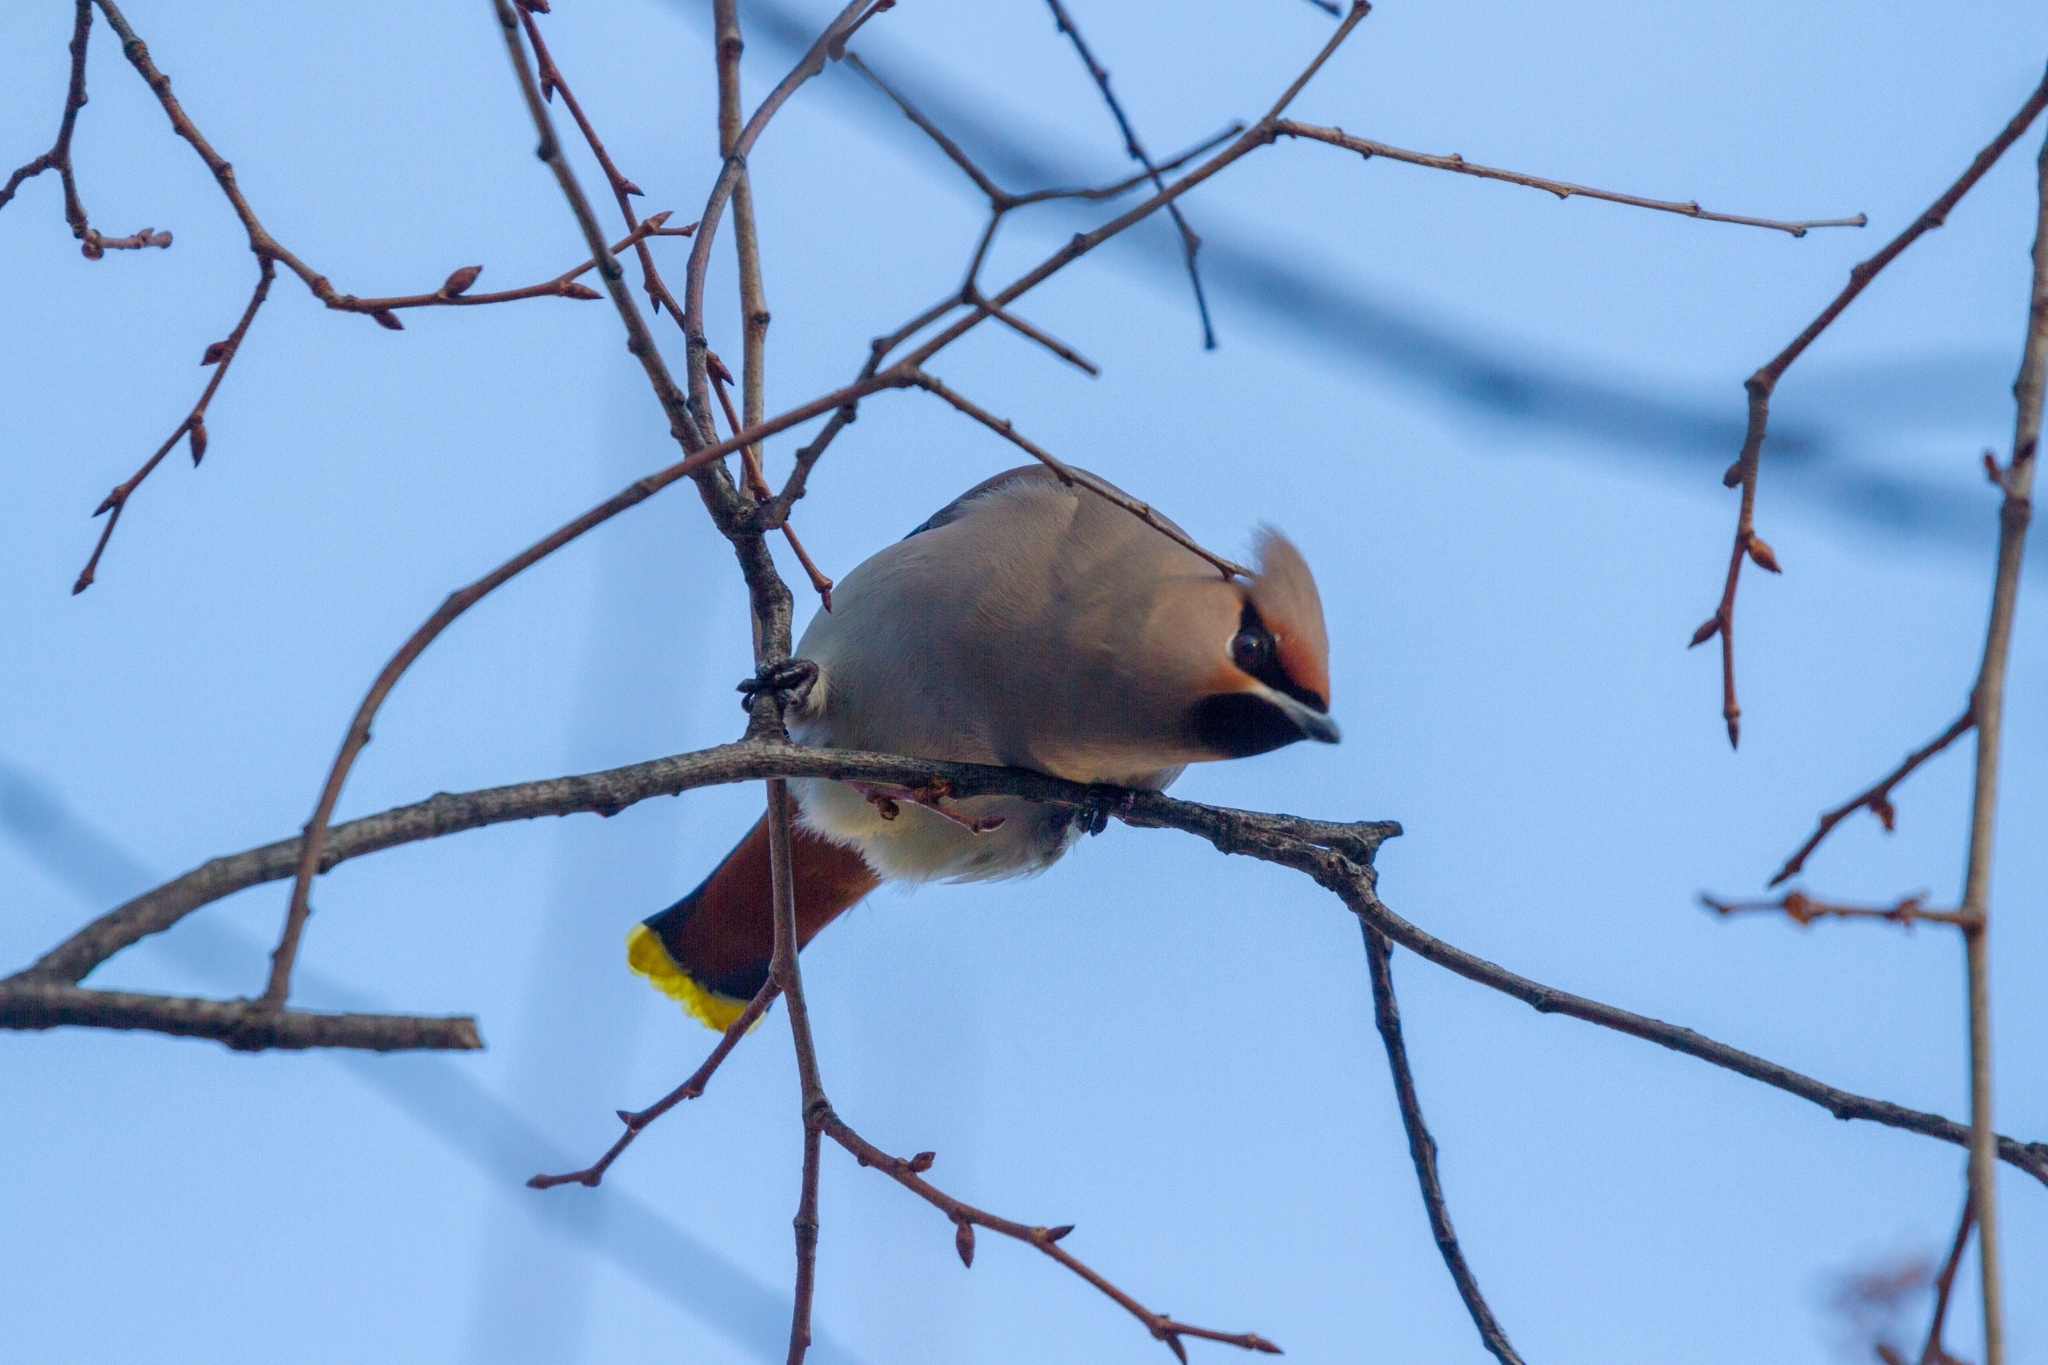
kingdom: Animalia
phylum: Chordata
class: Aves
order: Passeriformes
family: Bombycillidae
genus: Bombycilla
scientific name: Bombycilla garrulus
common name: Bohemian waxwing
